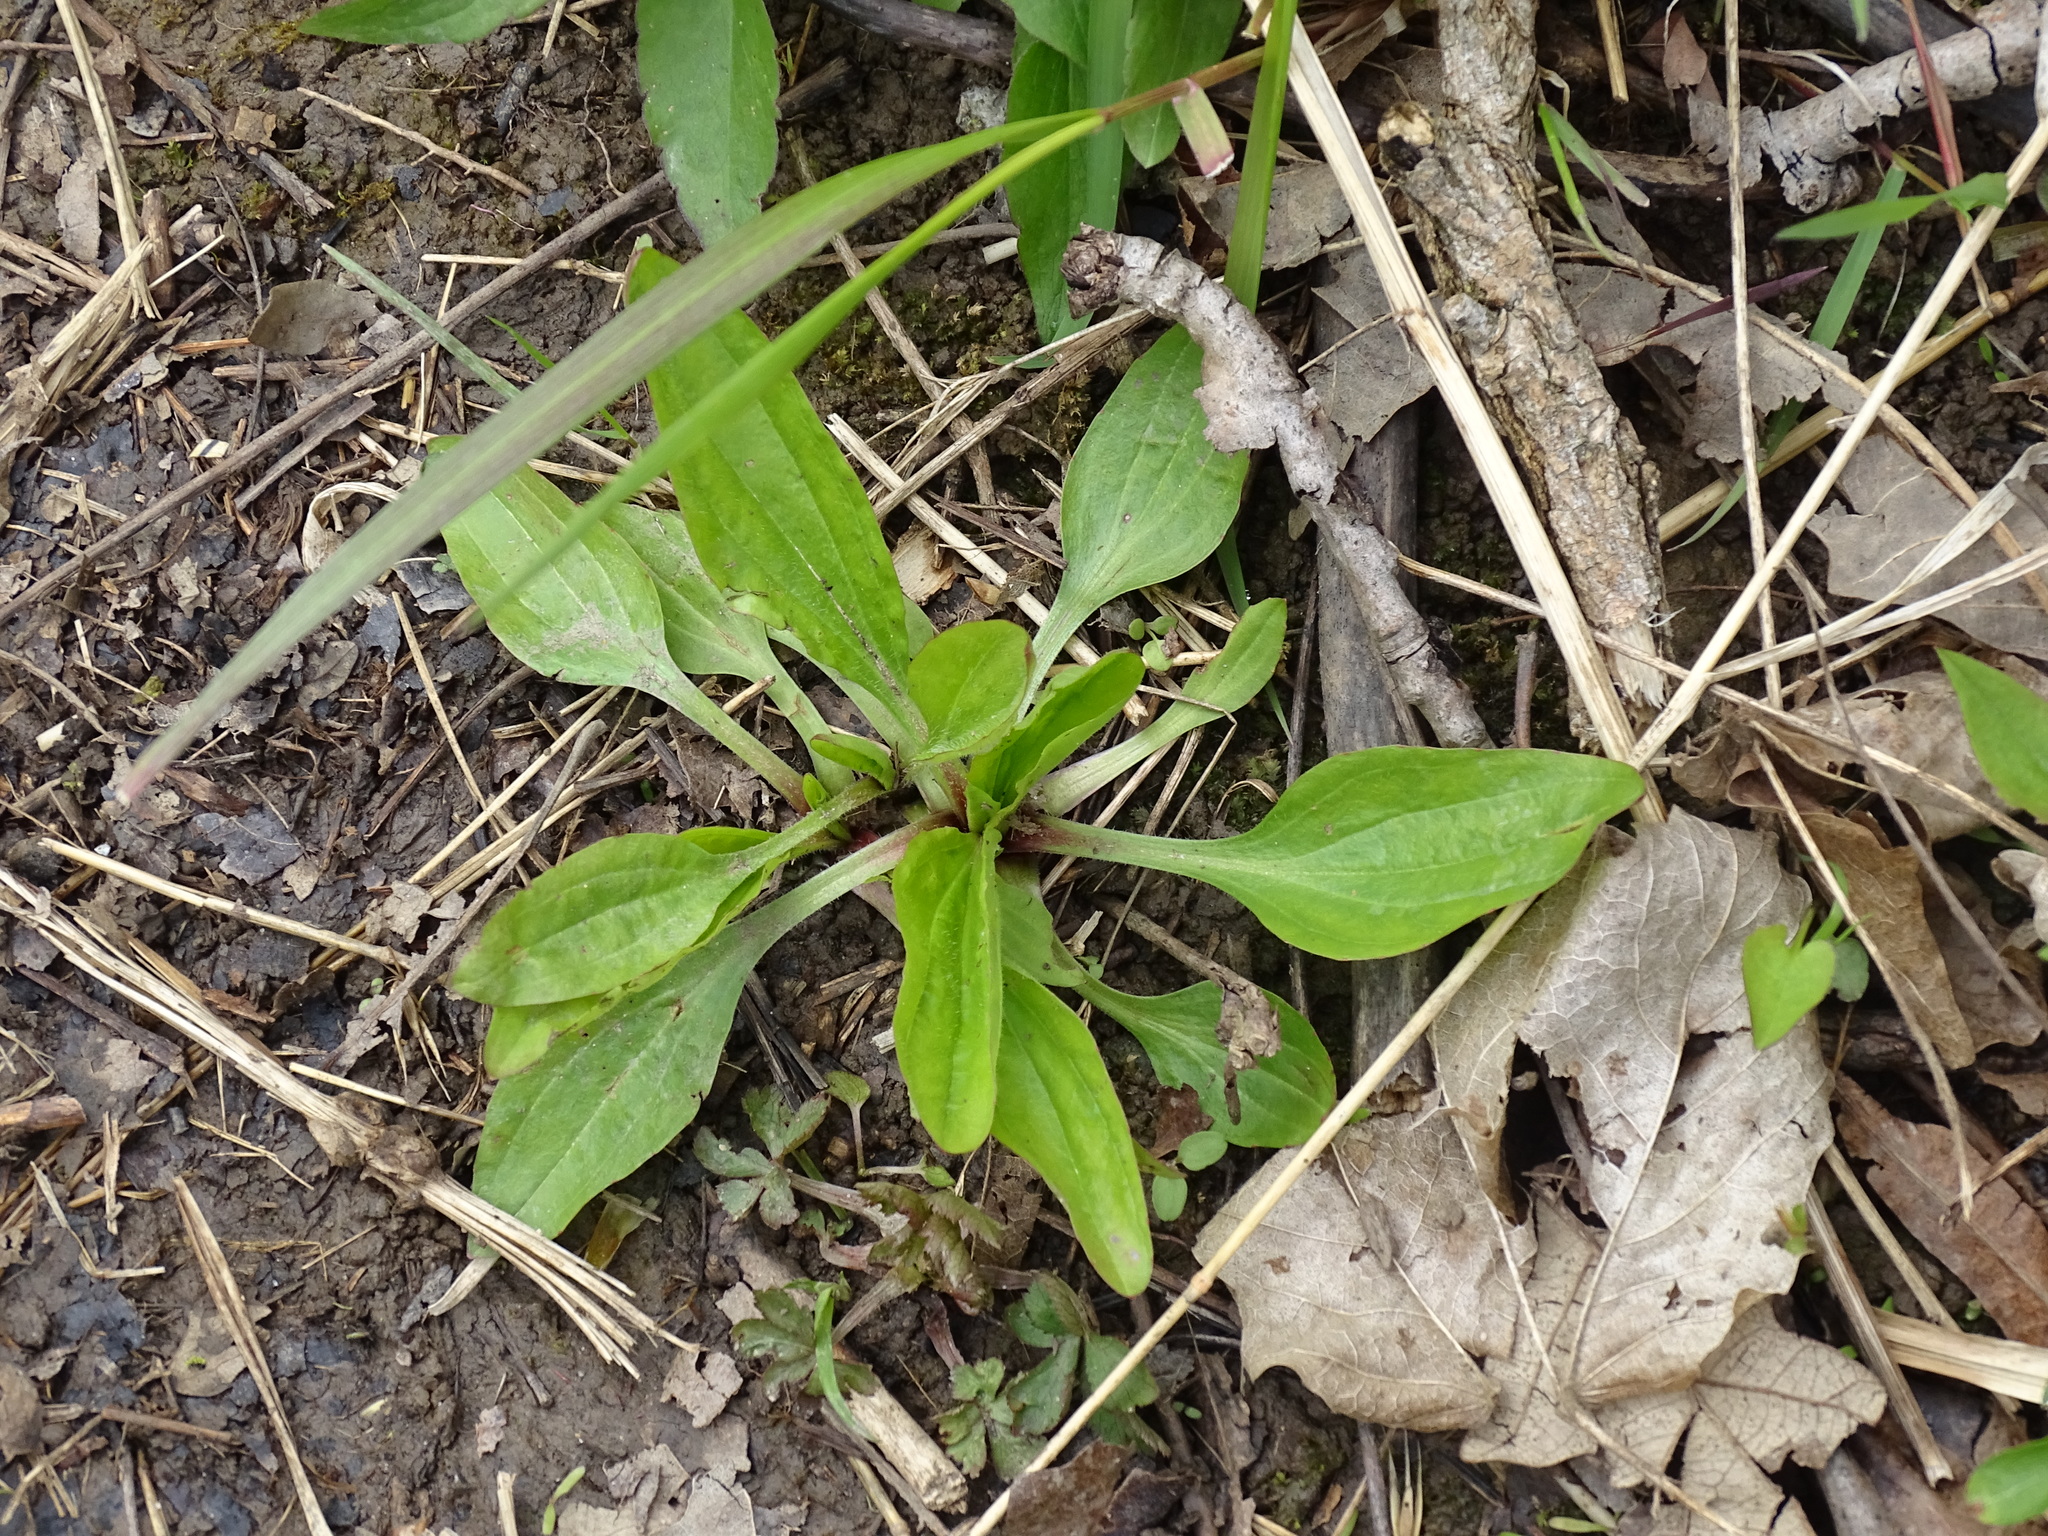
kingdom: Plantae
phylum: Tracheophyta
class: Magnoliopsida
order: Lamiales
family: Plantaginaceae
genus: Plantago
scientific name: Plantago rugelii
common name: American plantain
